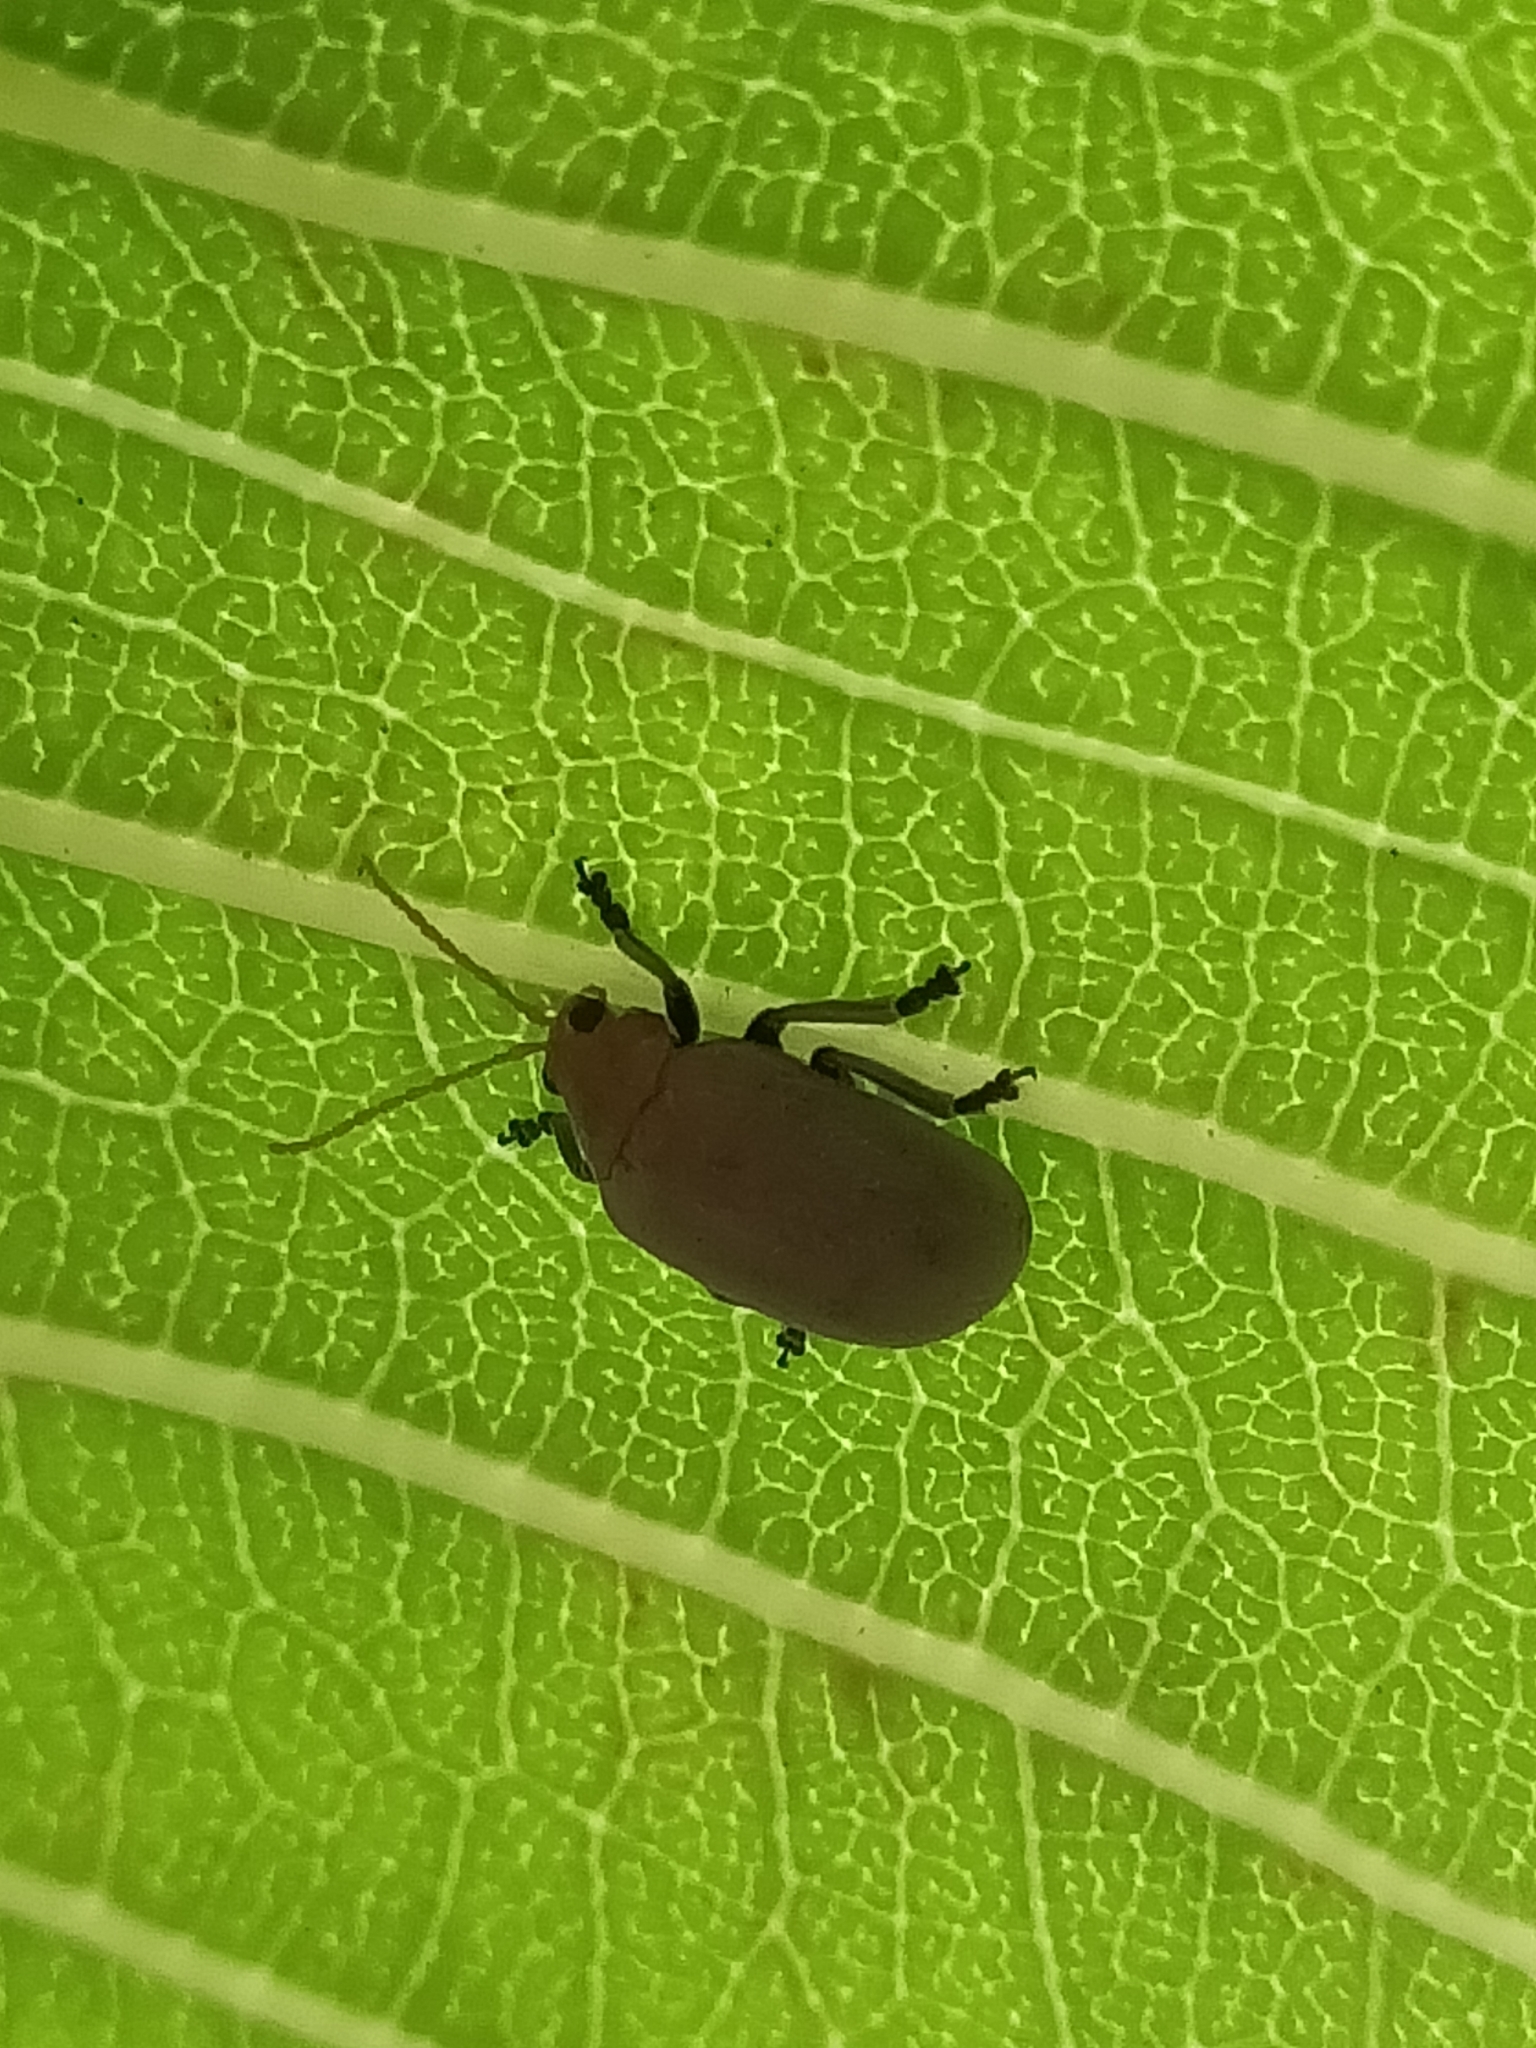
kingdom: Animalia
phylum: Arthropoda
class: Insecta
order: Coleoptera
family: Chrysomelidae
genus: Menippus
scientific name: Menippus
